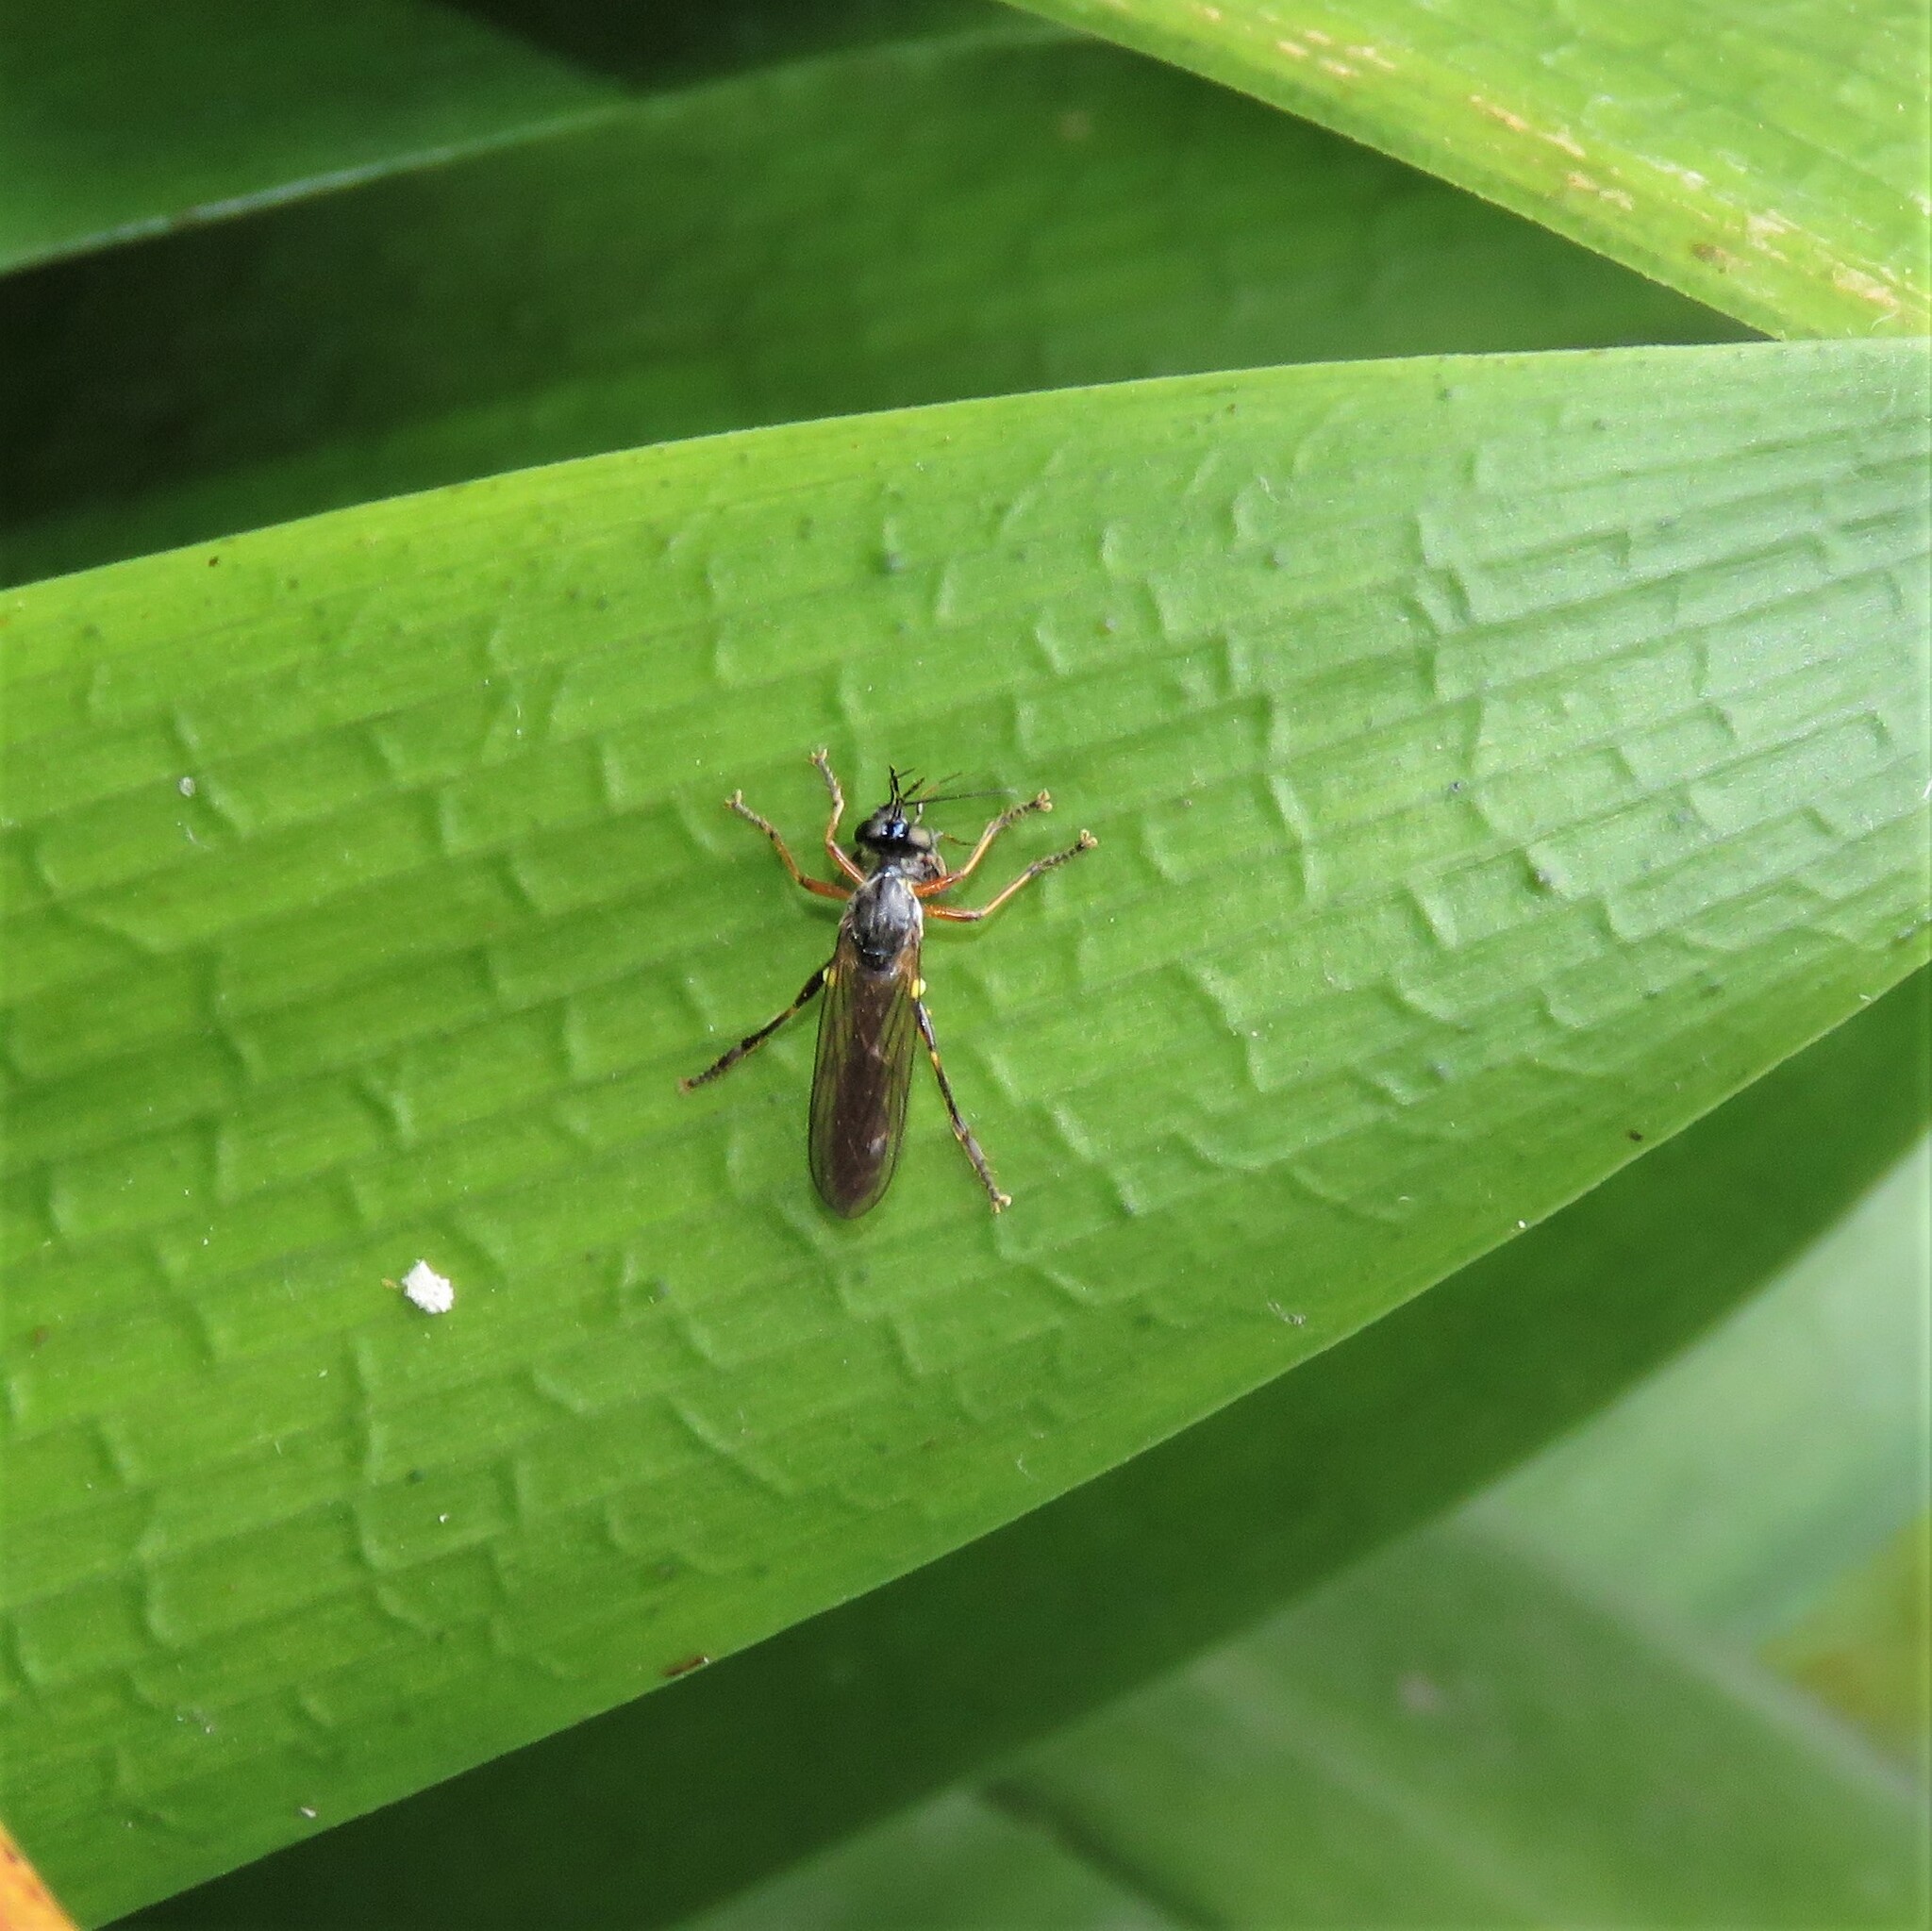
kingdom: Animalia
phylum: Arthropoda
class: Insecta
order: Diptera
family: Asilidae
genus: Dioctria
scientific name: Dioctria hyalipennis
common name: Stripe-legged robberfly
